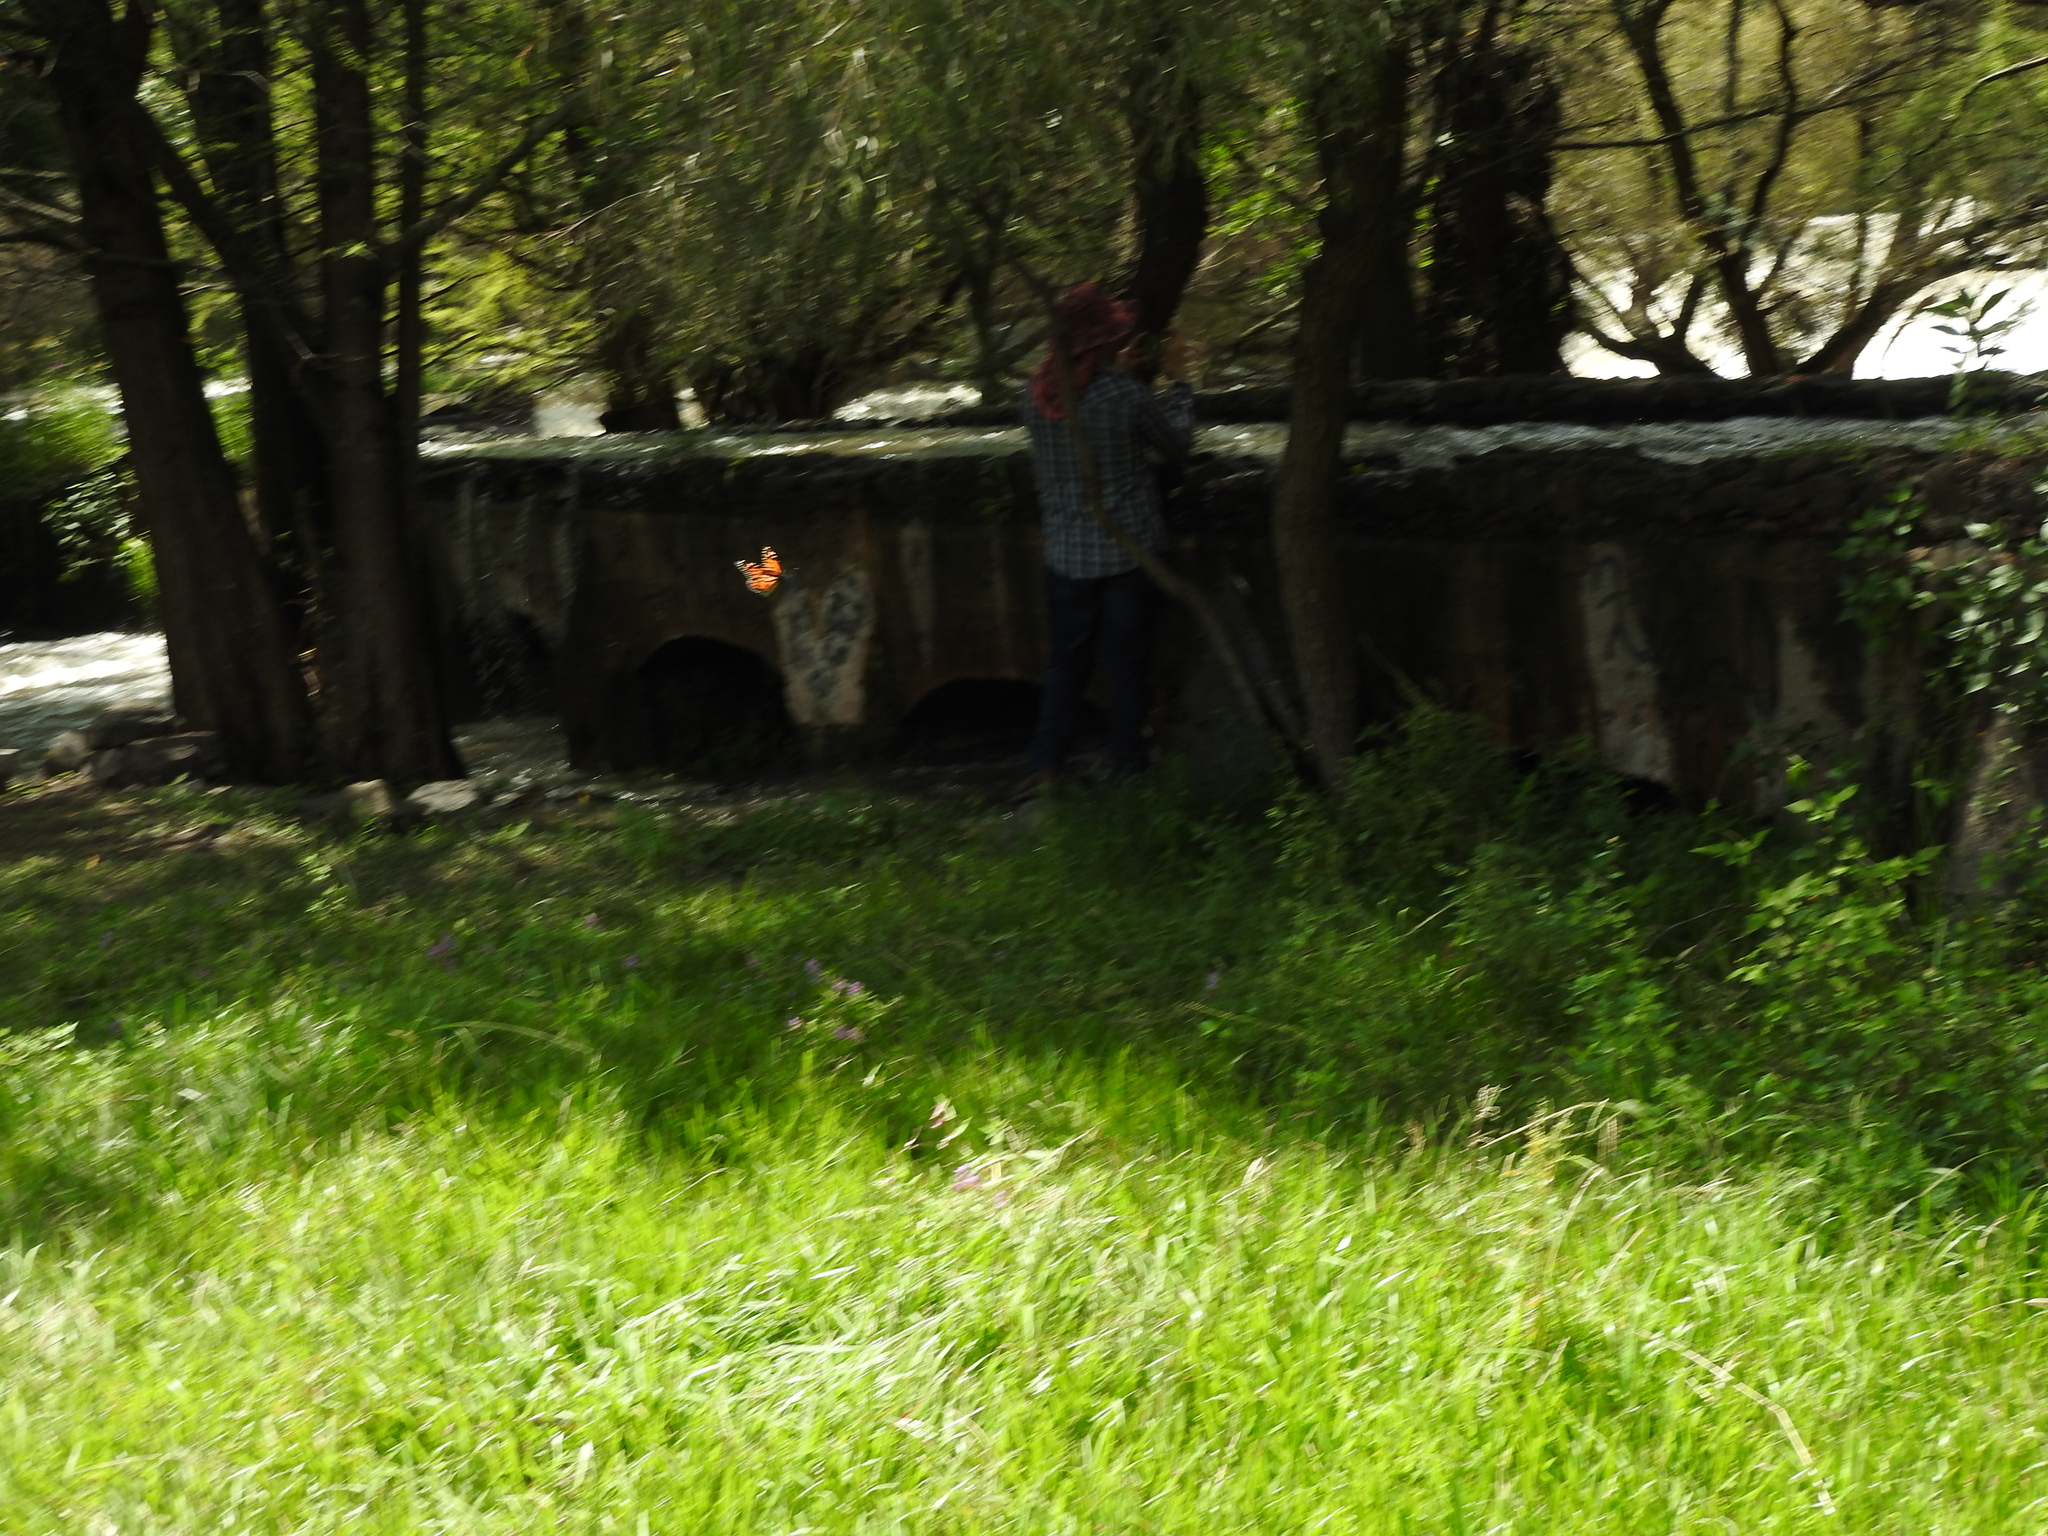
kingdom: Animalia
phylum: Arthropoda
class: Insecta
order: Lepidoptera
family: Nymphalidae
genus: Danaus
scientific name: Danaus plexippus
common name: Monarch
